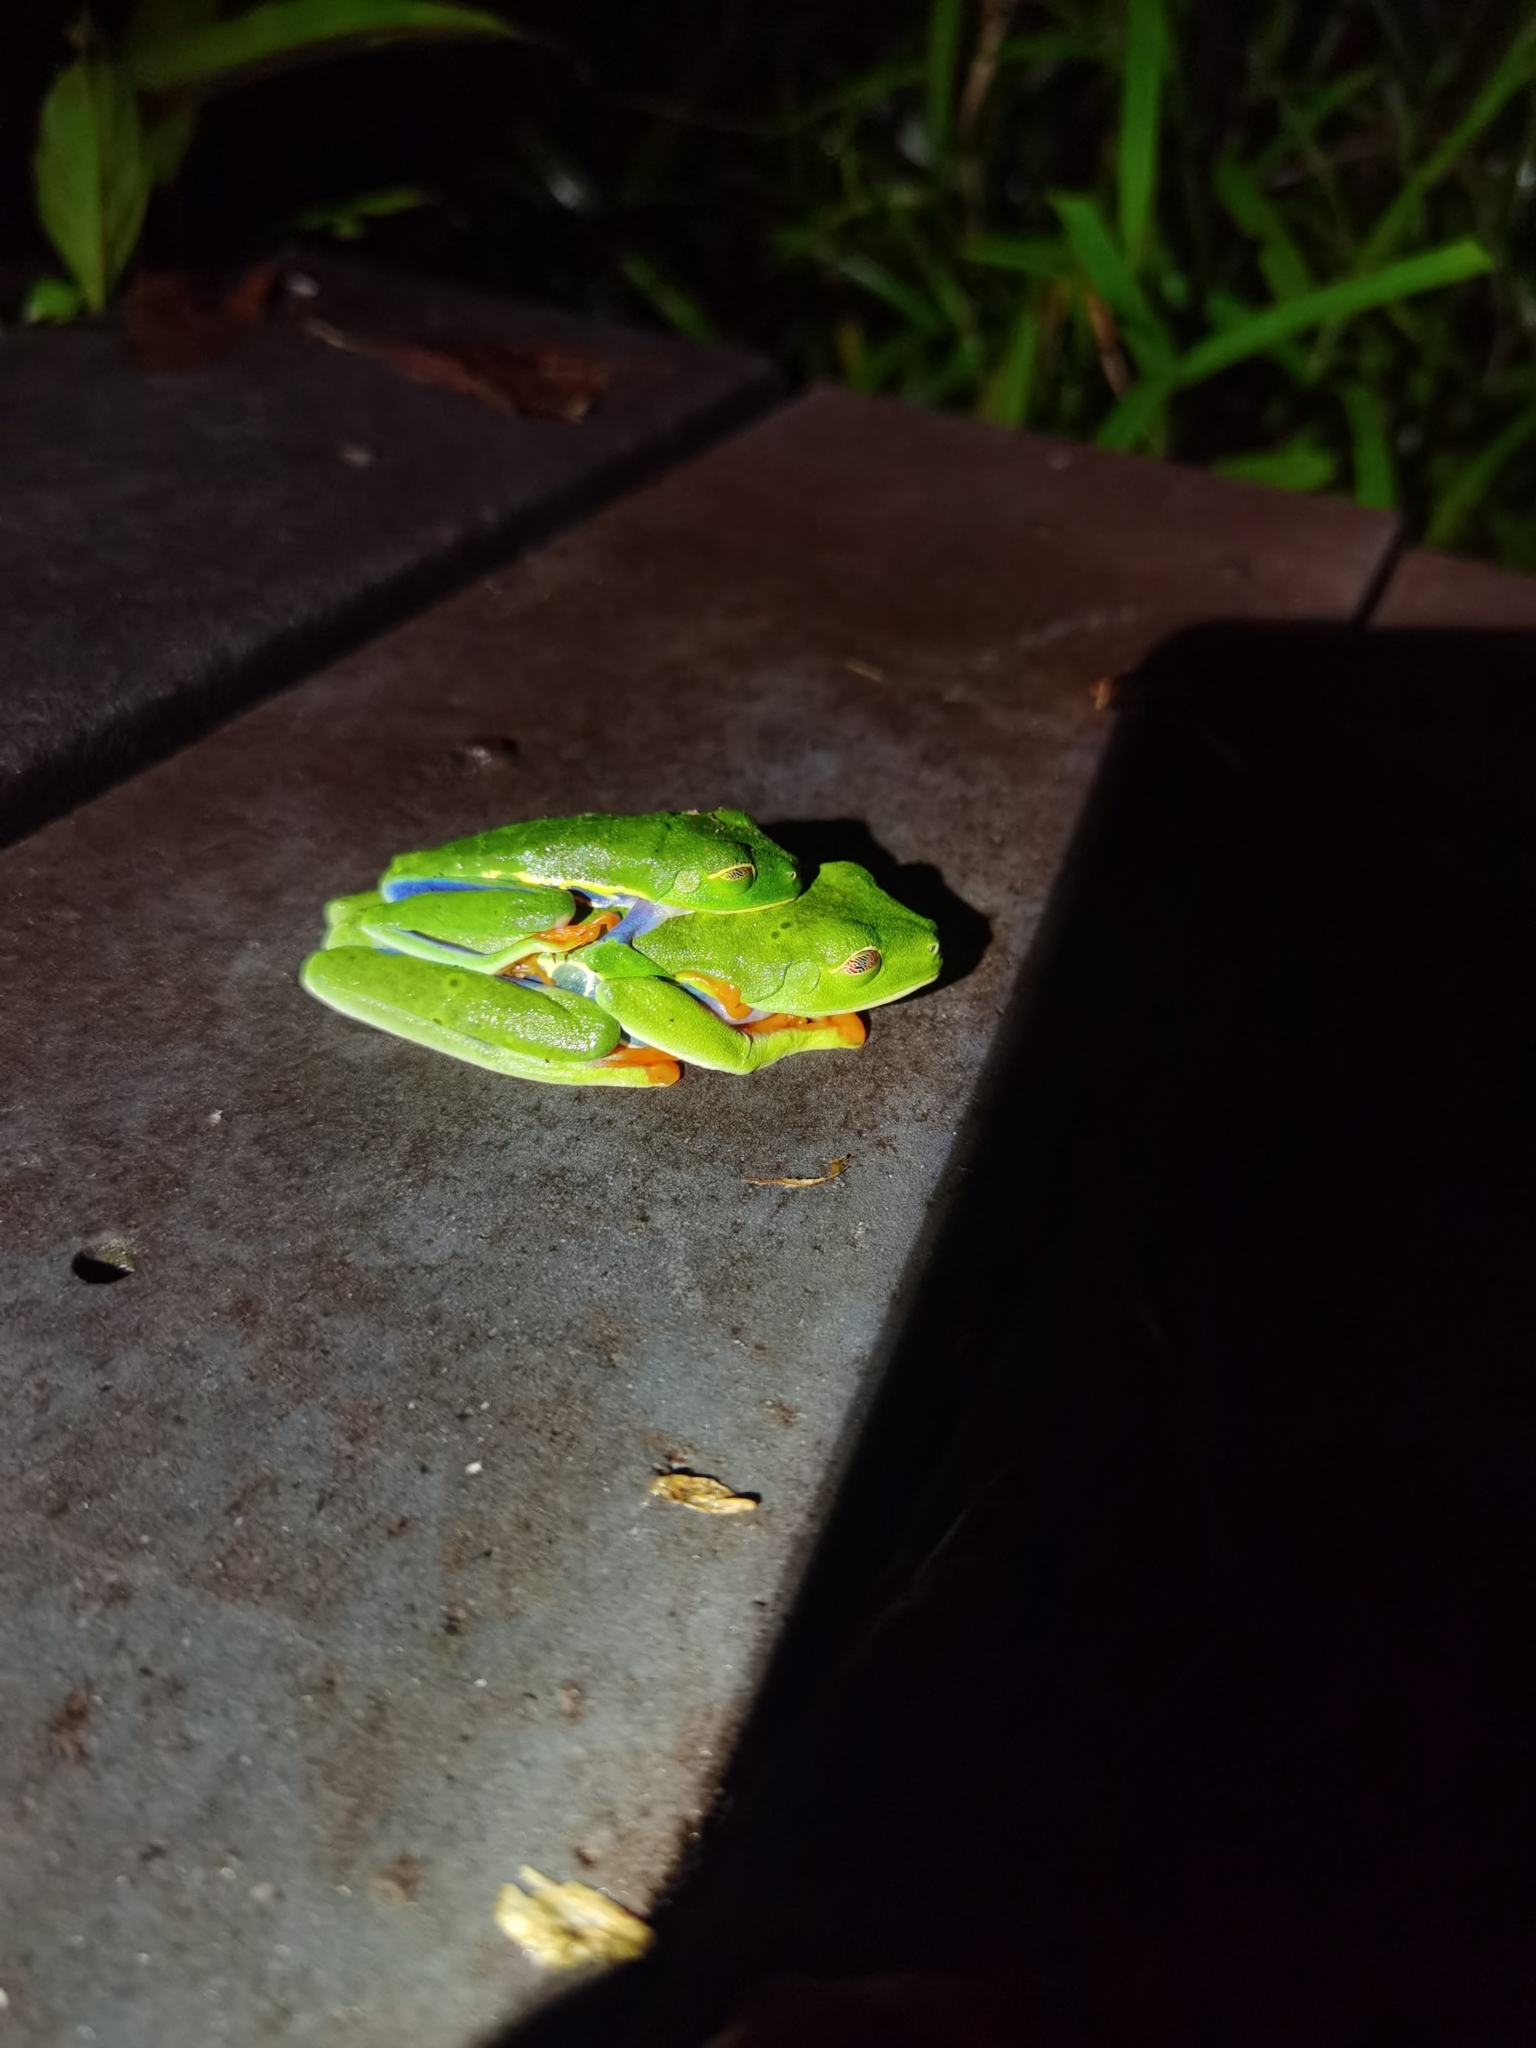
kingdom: Animalia
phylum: Chordata
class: Amphibia
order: Anura
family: Phyllomedusidae
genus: Agalychnis
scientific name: Agalychnis callidryas
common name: Red-eyed treefrog
